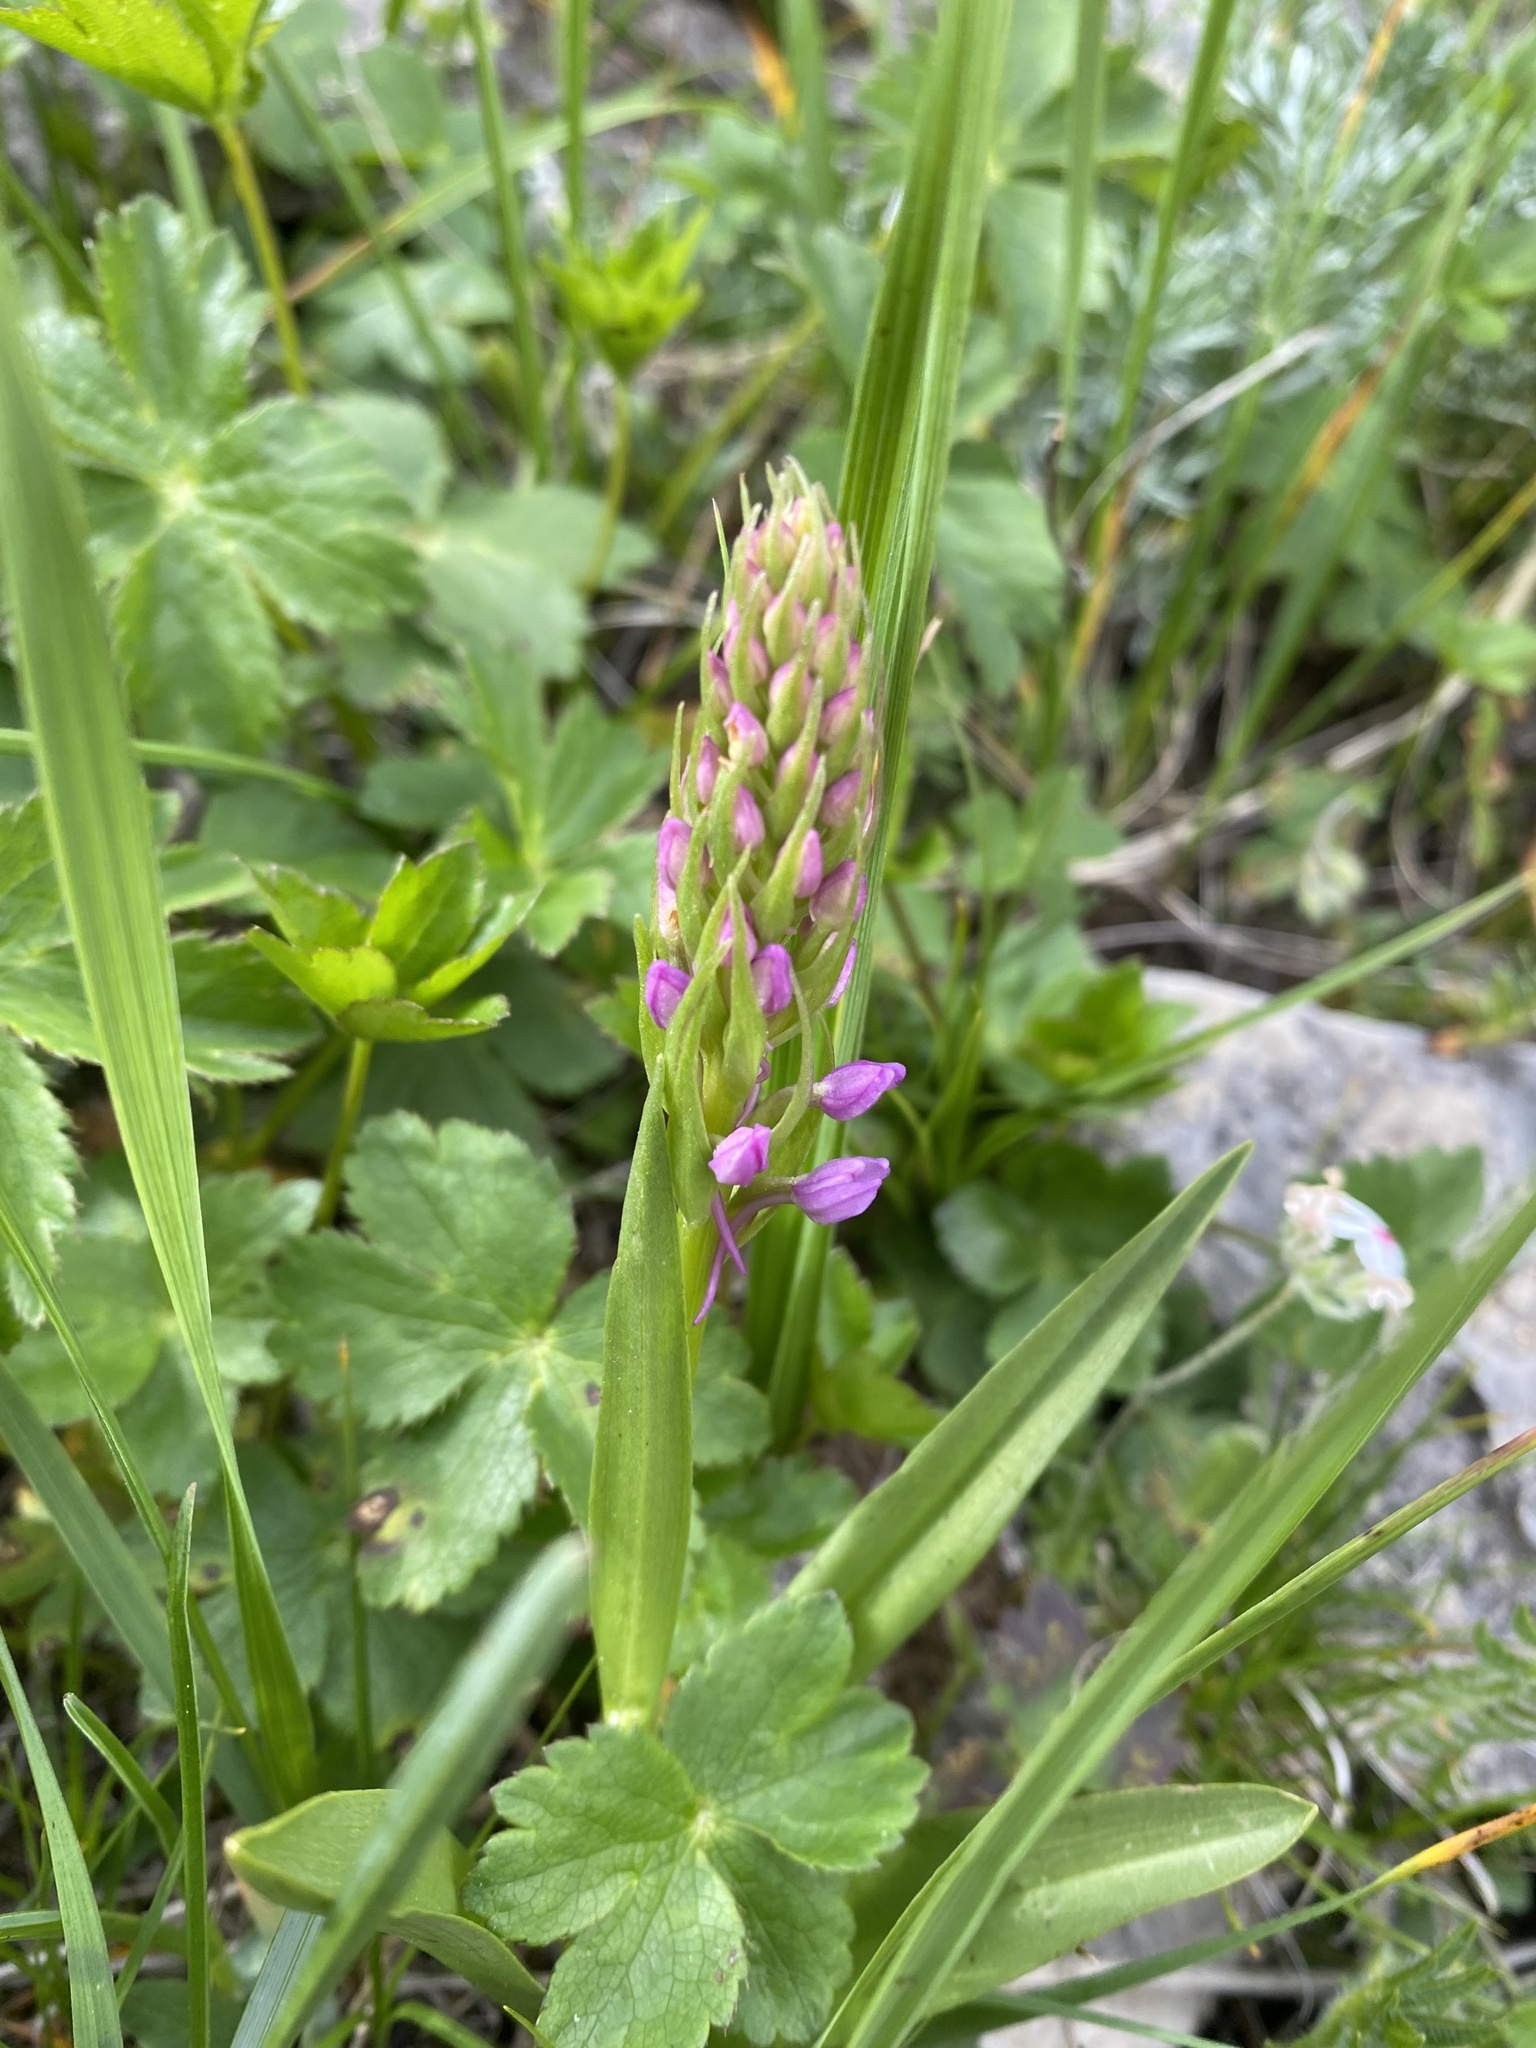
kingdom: Plantae
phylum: Tracheophyta
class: Liliopsida
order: Asparagales
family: Orchidaceae
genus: Gymnadenia
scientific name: Gymnadenia conopsea
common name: Fragrant orchid
